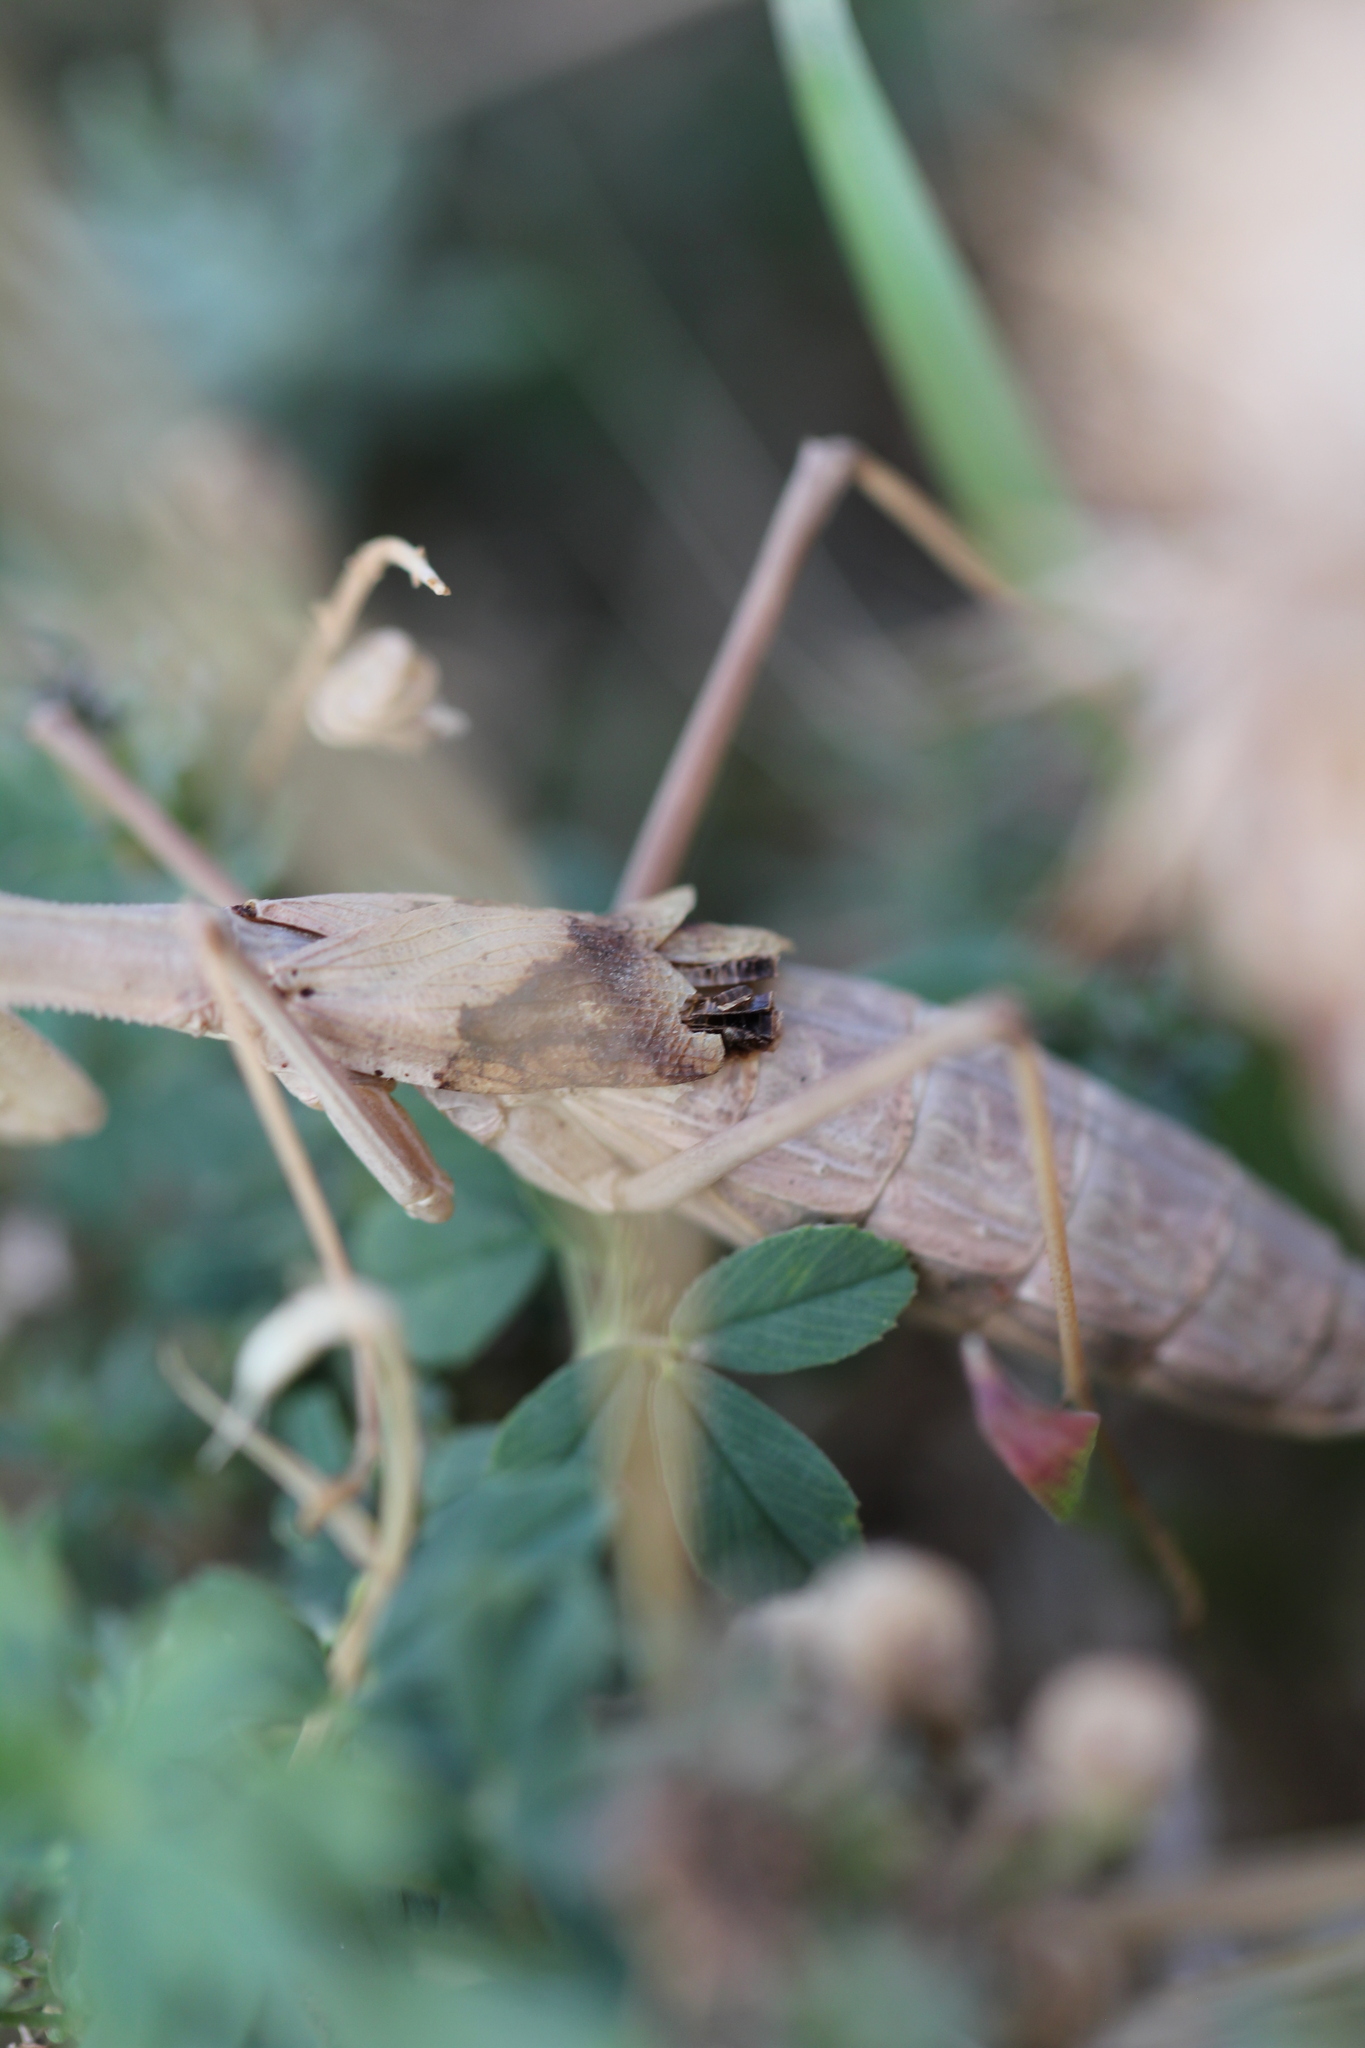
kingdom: Animalia
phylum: Arthropoda
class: Insecta
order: Mantodea
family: Rivetinidae
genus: Bolivaria
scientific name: Bolivaria brachyptera
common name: Bolivar's short winged mantis
